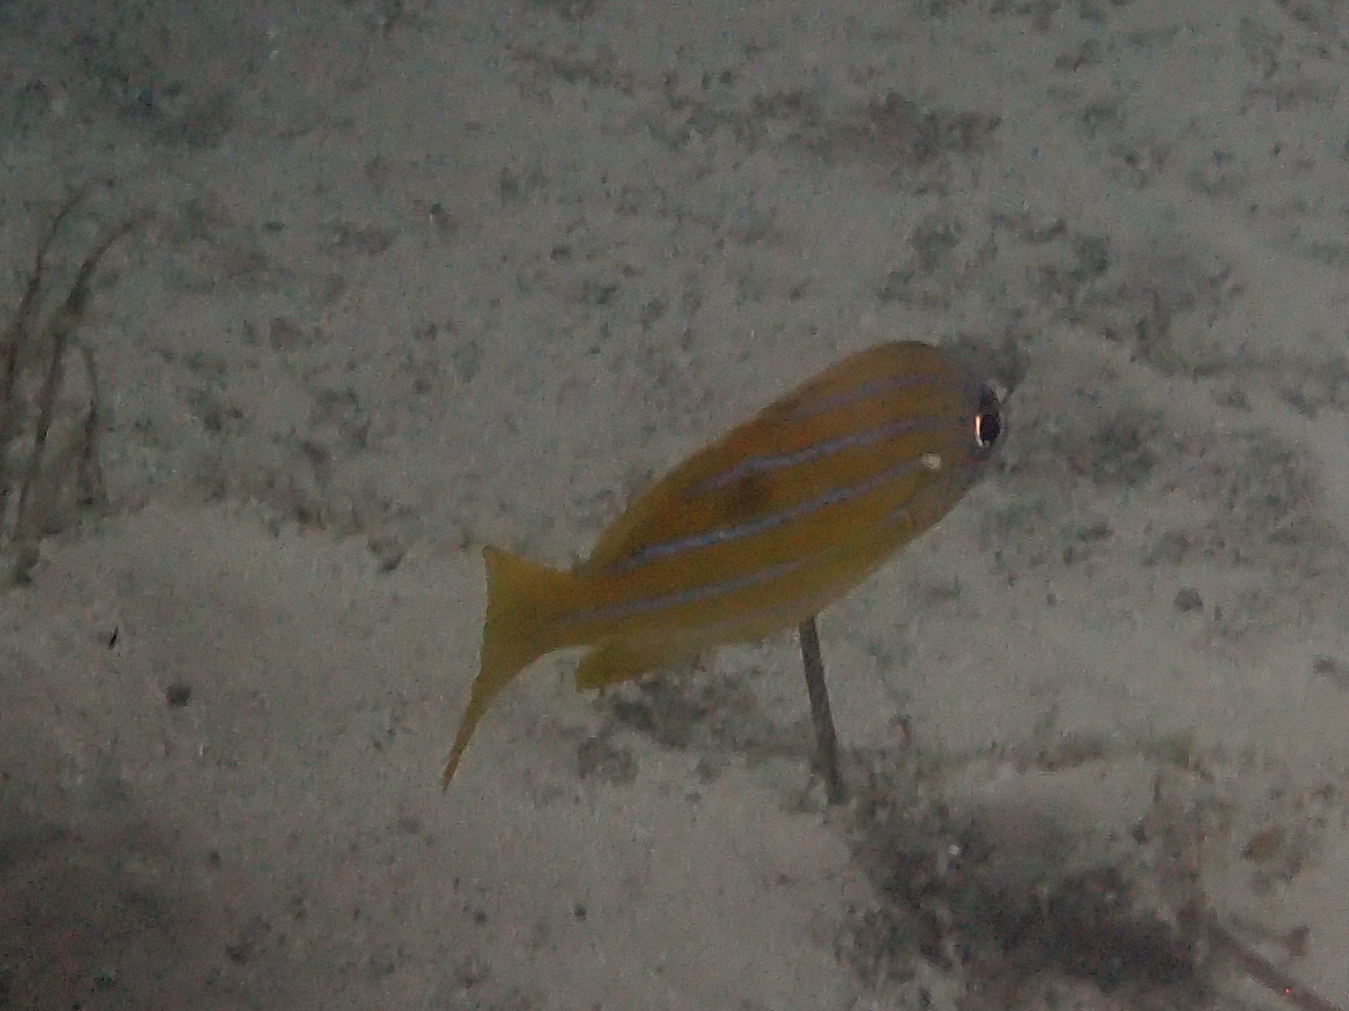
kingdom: Animalia
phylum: Chordata
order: Perciformes
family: Lutjanidae
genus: Lutjanus
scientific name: Lutjanus quinquelineatus
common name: Five-lined snapper
